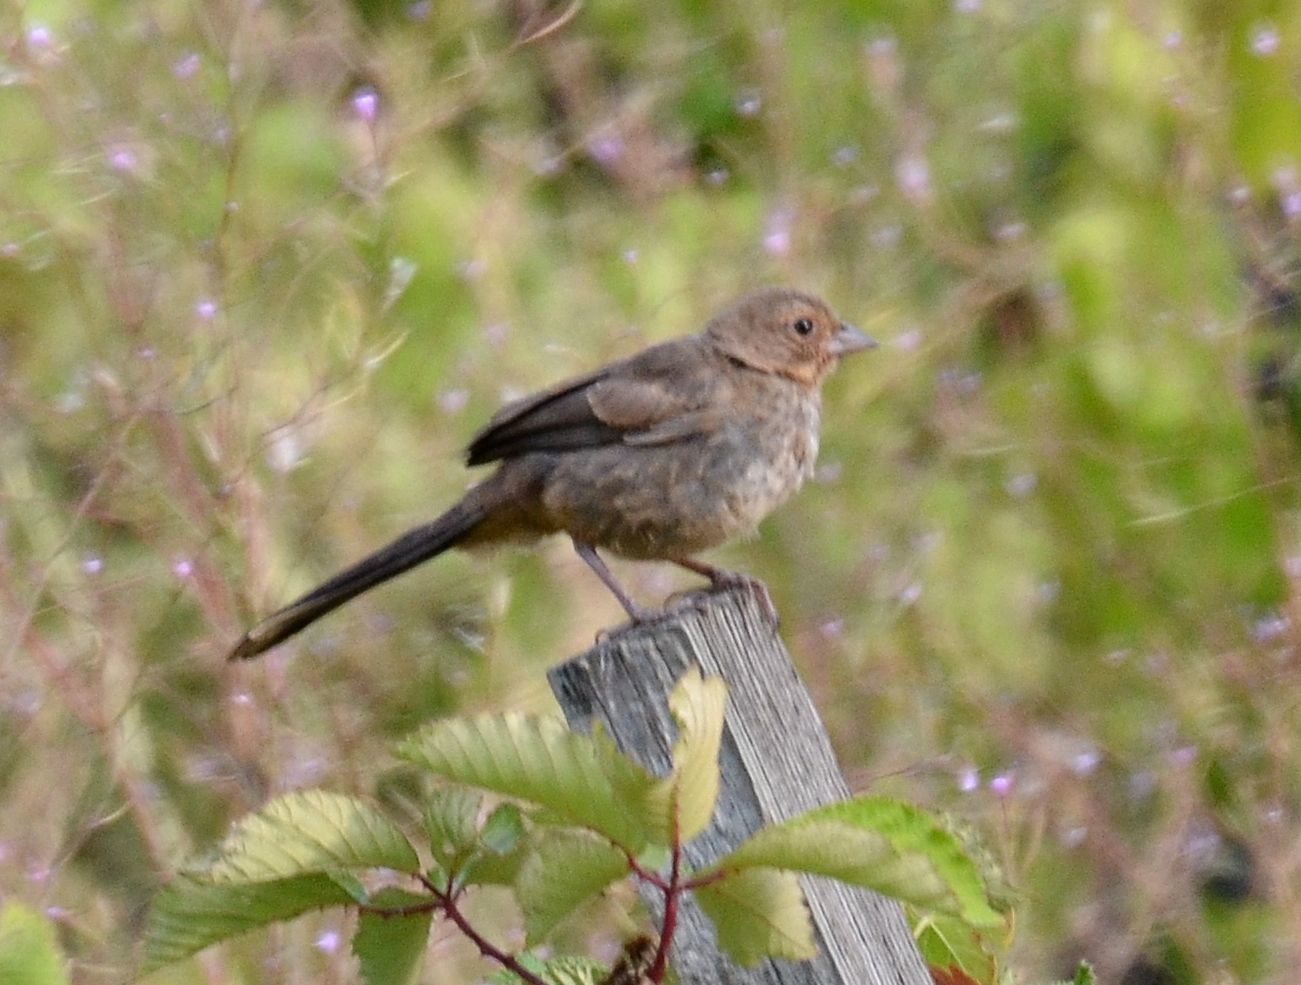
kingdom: Animalia
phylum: Chordata
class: Aves
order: Passeriformes
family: Passerellidae
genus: Melozone
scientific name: Melozone crissalis
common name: California towhee
